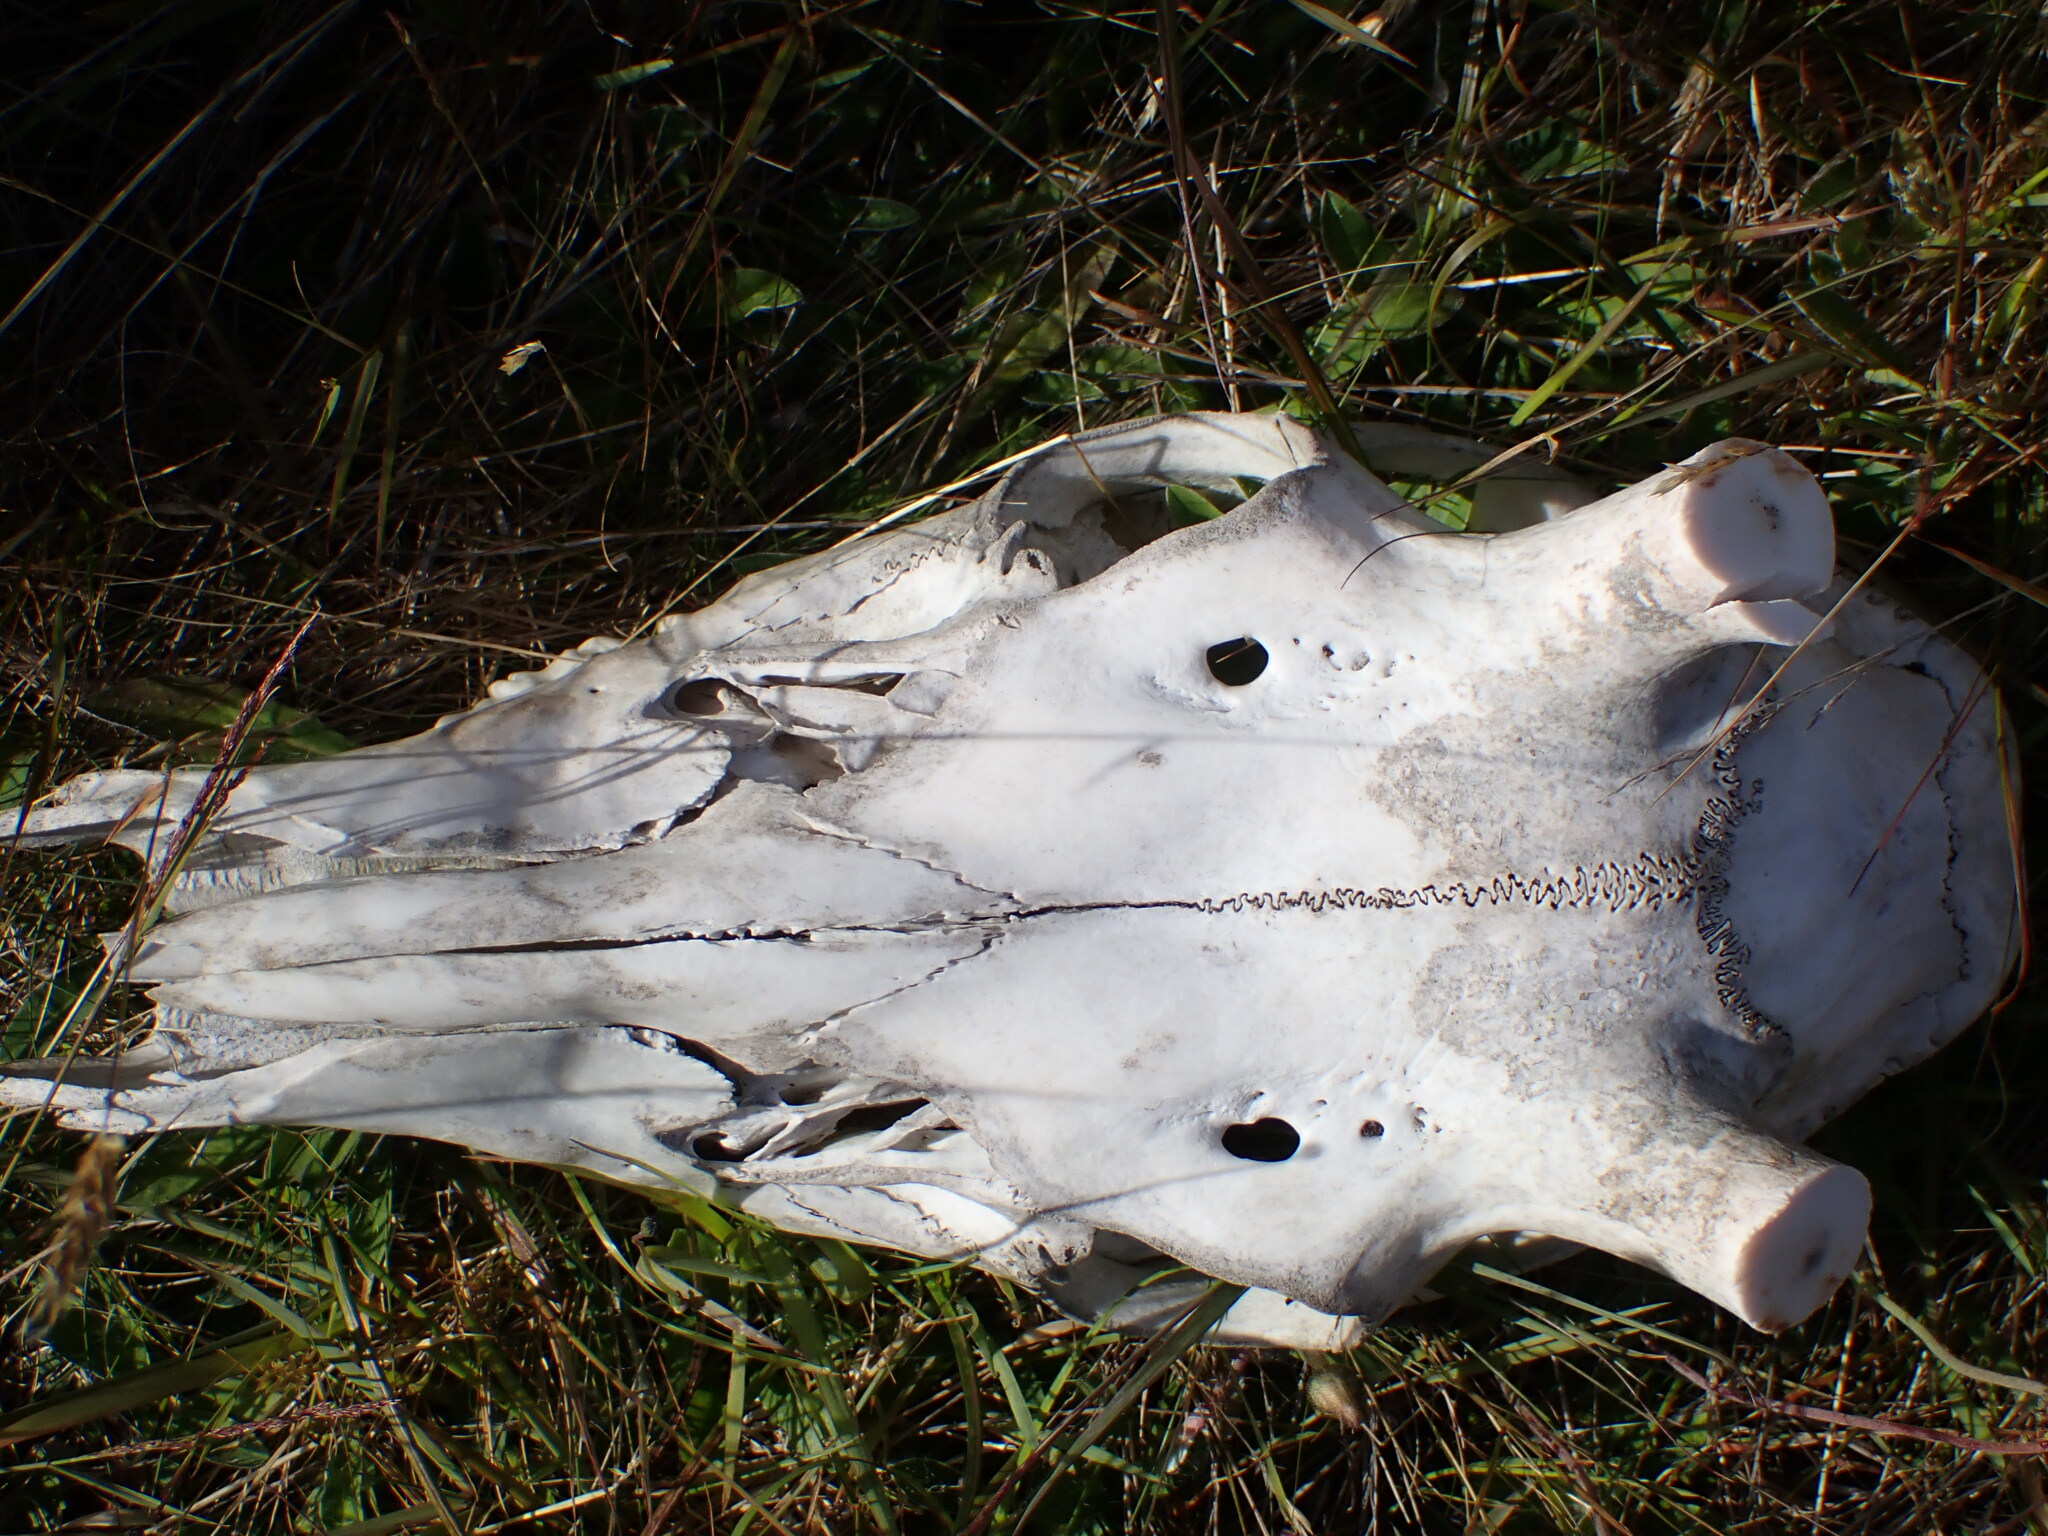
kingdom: Animalia
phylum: Chordata
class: Mammalia
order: Artiodactyla
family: Cervidae
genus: Cervus
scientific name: Cervus elaphus
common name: Red deer
